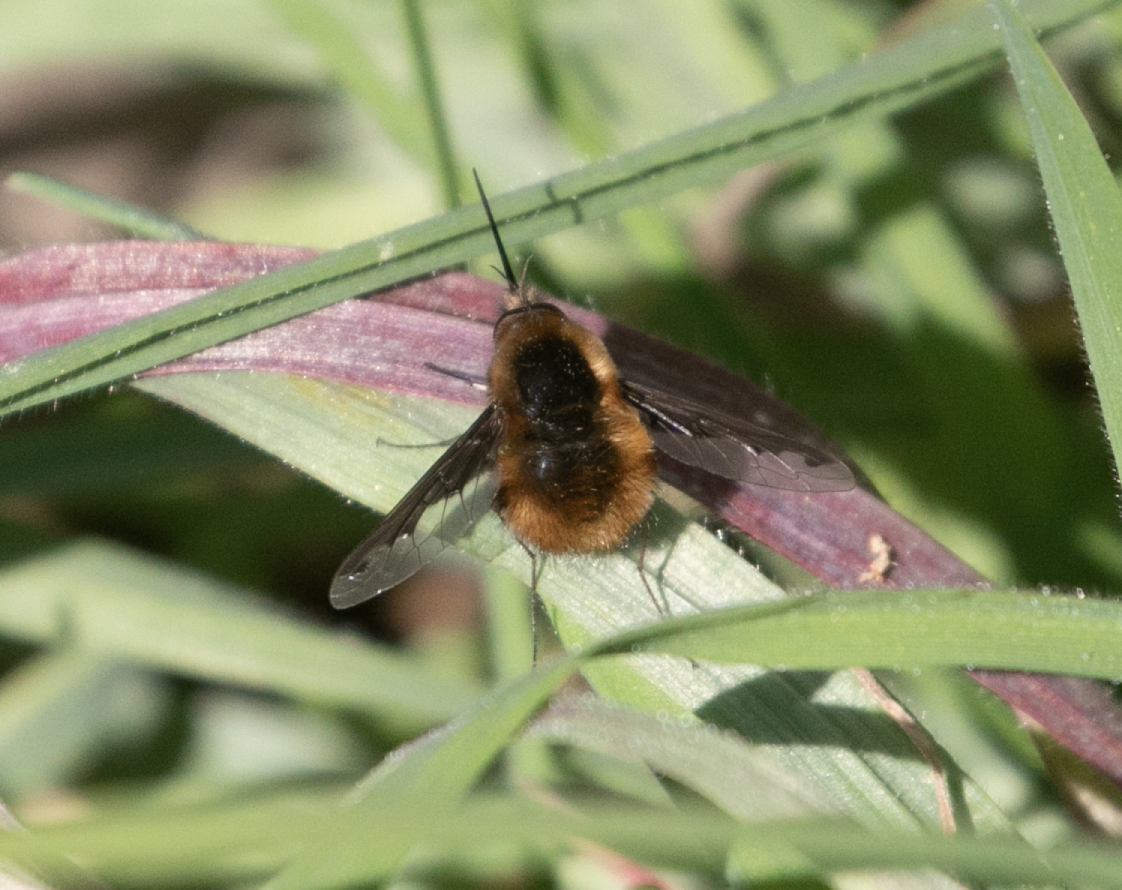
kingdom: Animalia
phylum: Arthropoda
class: Insecta
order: Diptera
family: Bombyliidae
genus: Bombylius
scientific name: Bombylius major
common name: Bee fly
